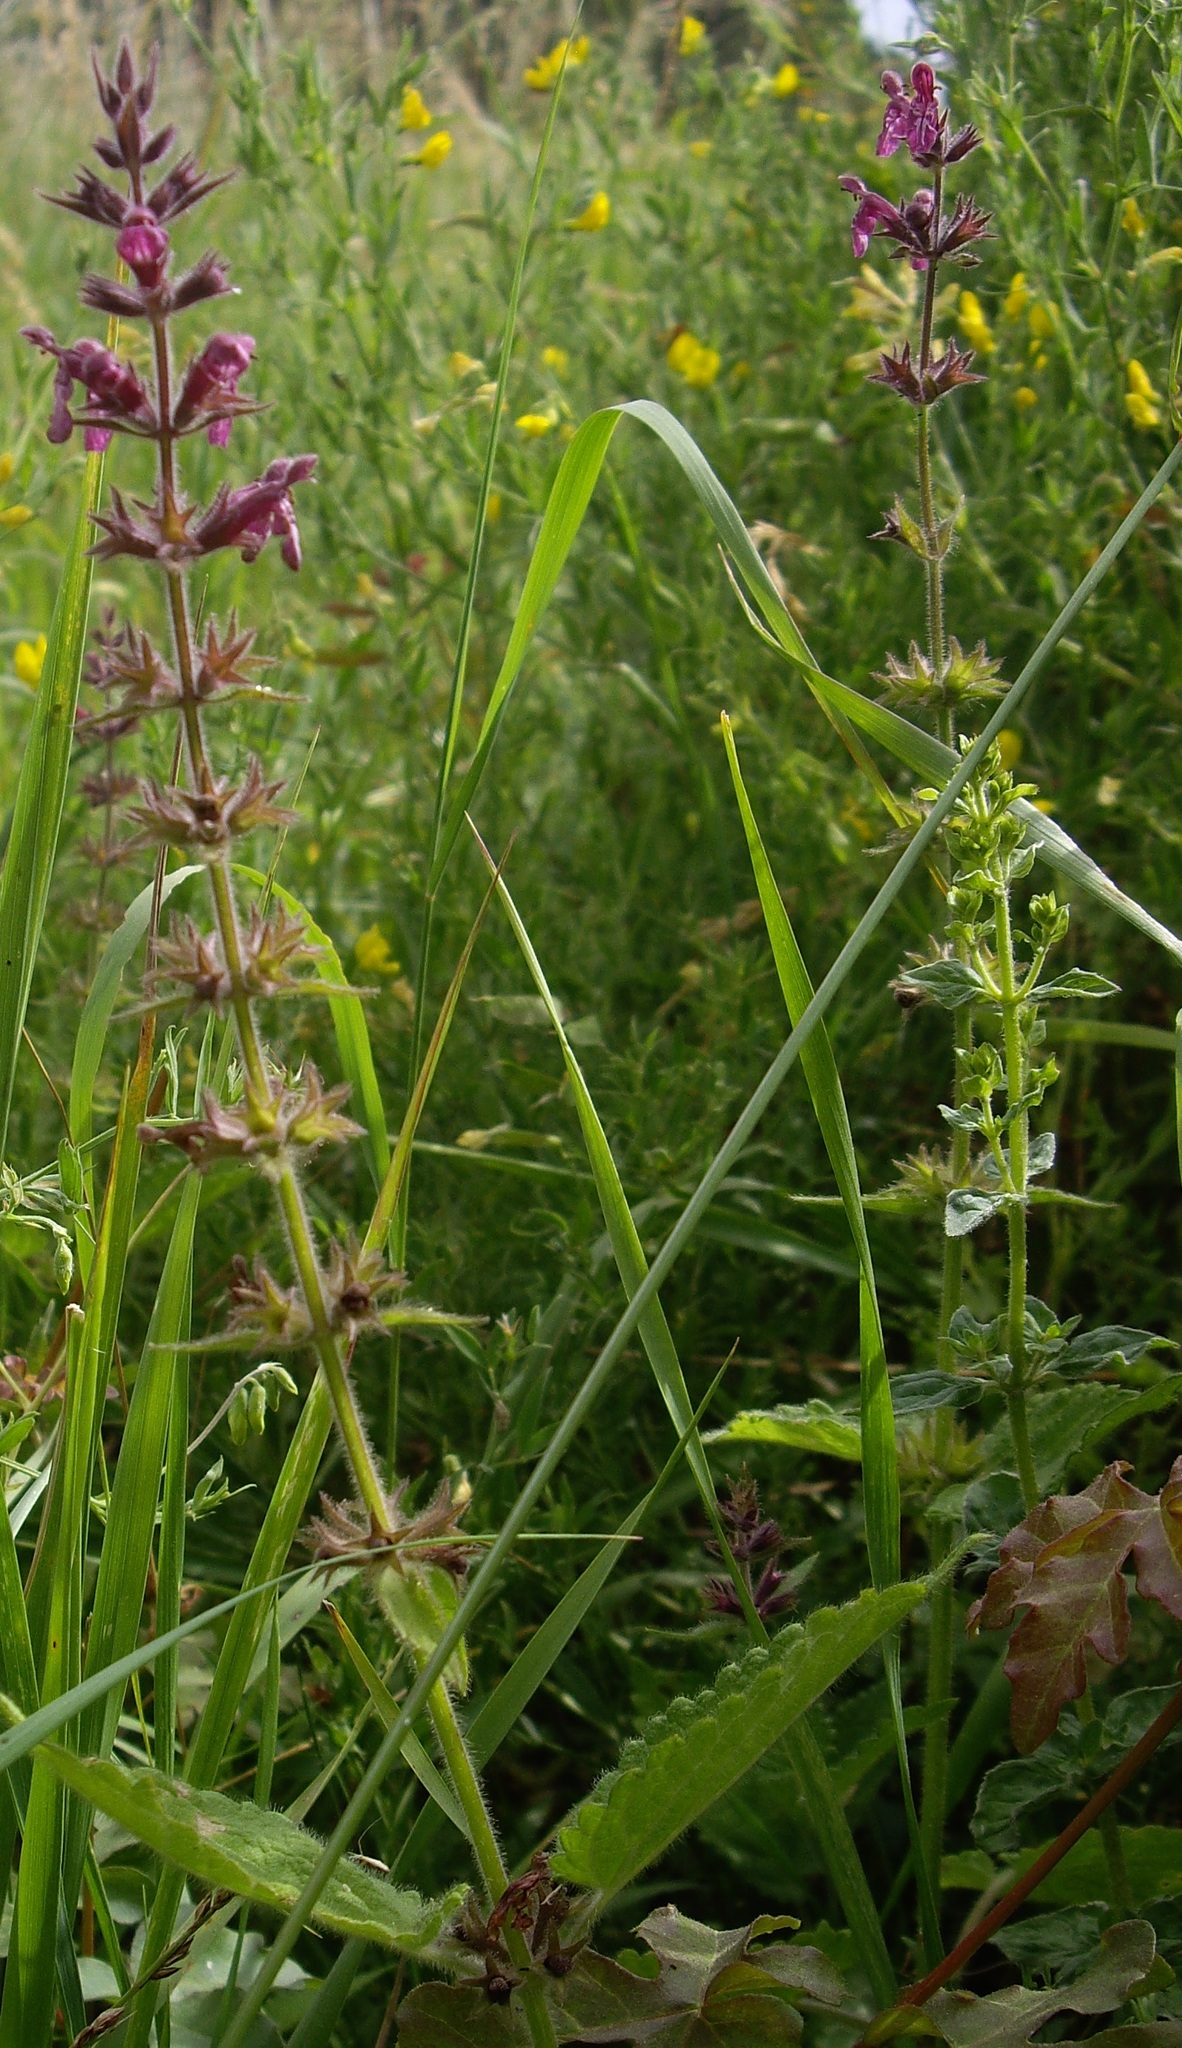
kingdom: Plantae
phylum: Tracheophyta
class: Magnoliopsida
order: Lamiales
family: Lamiaceae
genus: Stachys
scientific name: Stachys sylvatica
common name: Hedge woundwort
